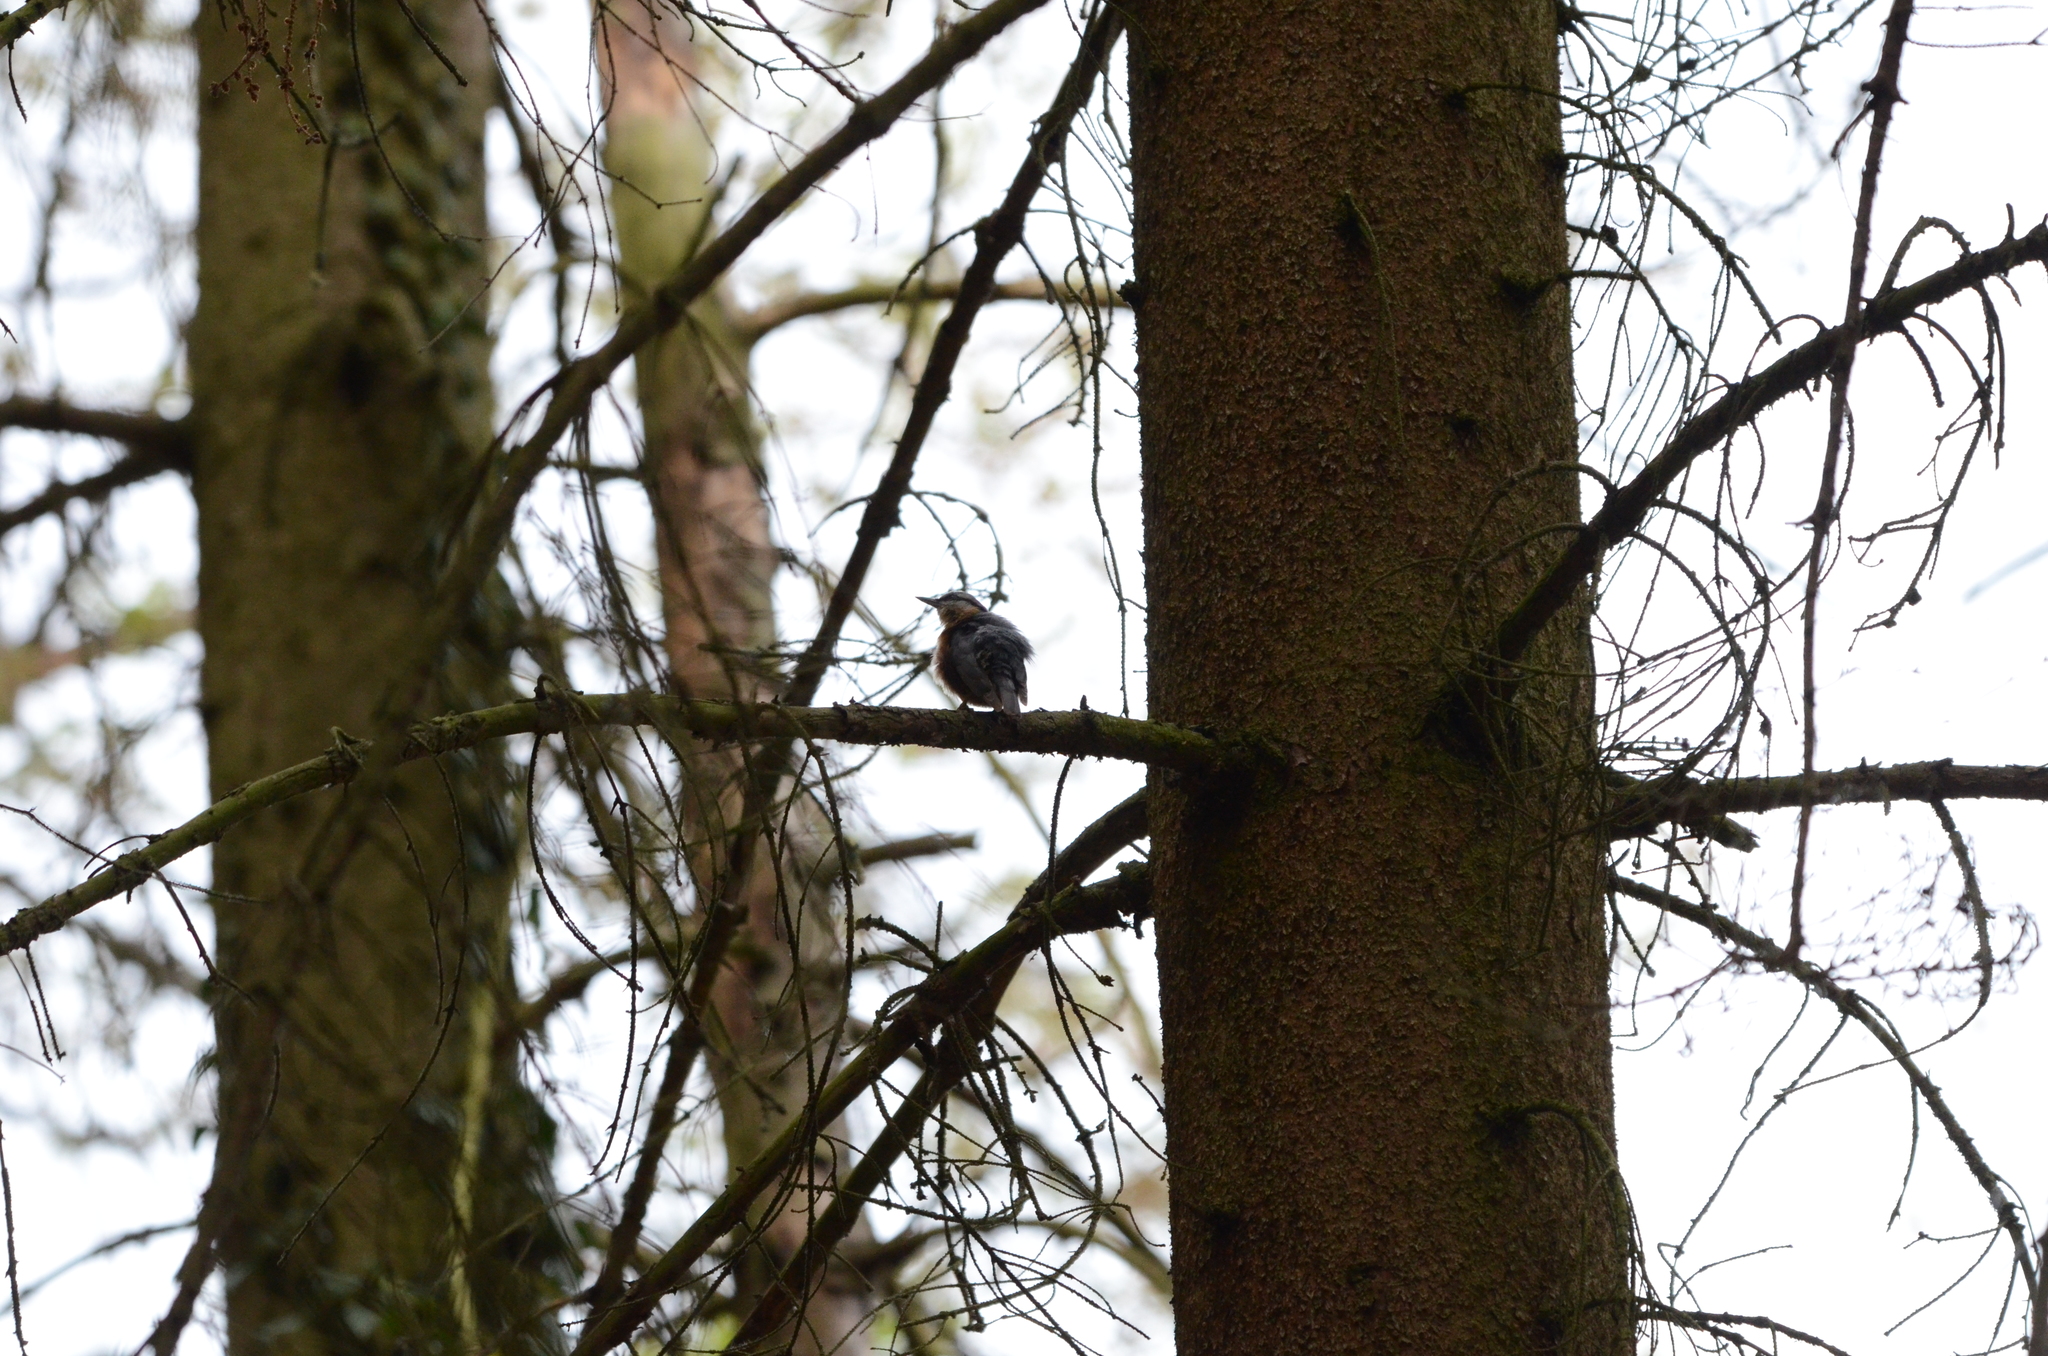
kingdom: Animalia
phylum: Chordata
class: Aves
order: Passeriformes
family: Sittidae
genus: Sitta
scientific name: Sitta europaea
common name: Eurasian nuthatch
